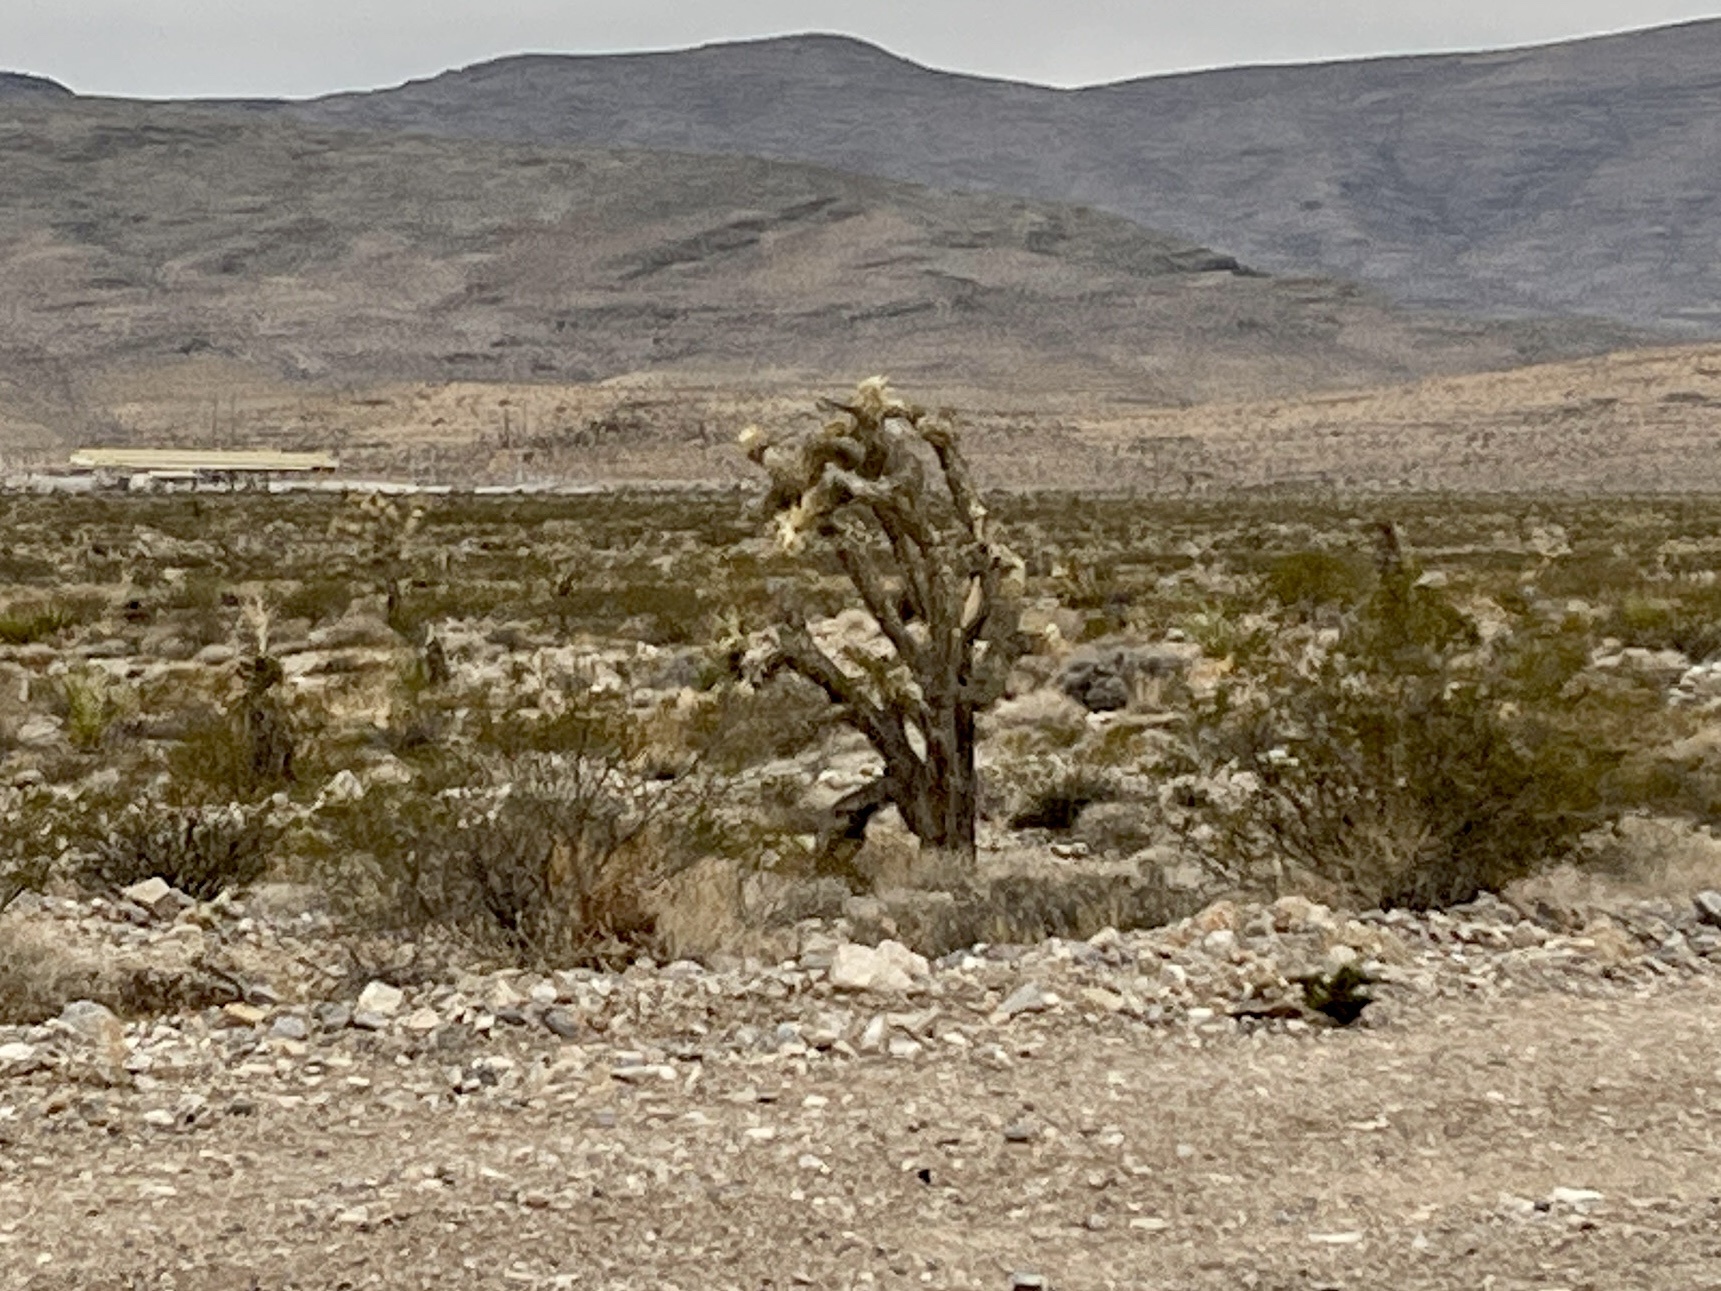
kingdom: Plantae
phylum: Tracheophyta
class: Liliopsida
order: Asparagales
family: Asparagaceae
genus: Yucca
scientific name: Yucca brevifolia
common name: Joshua tree
